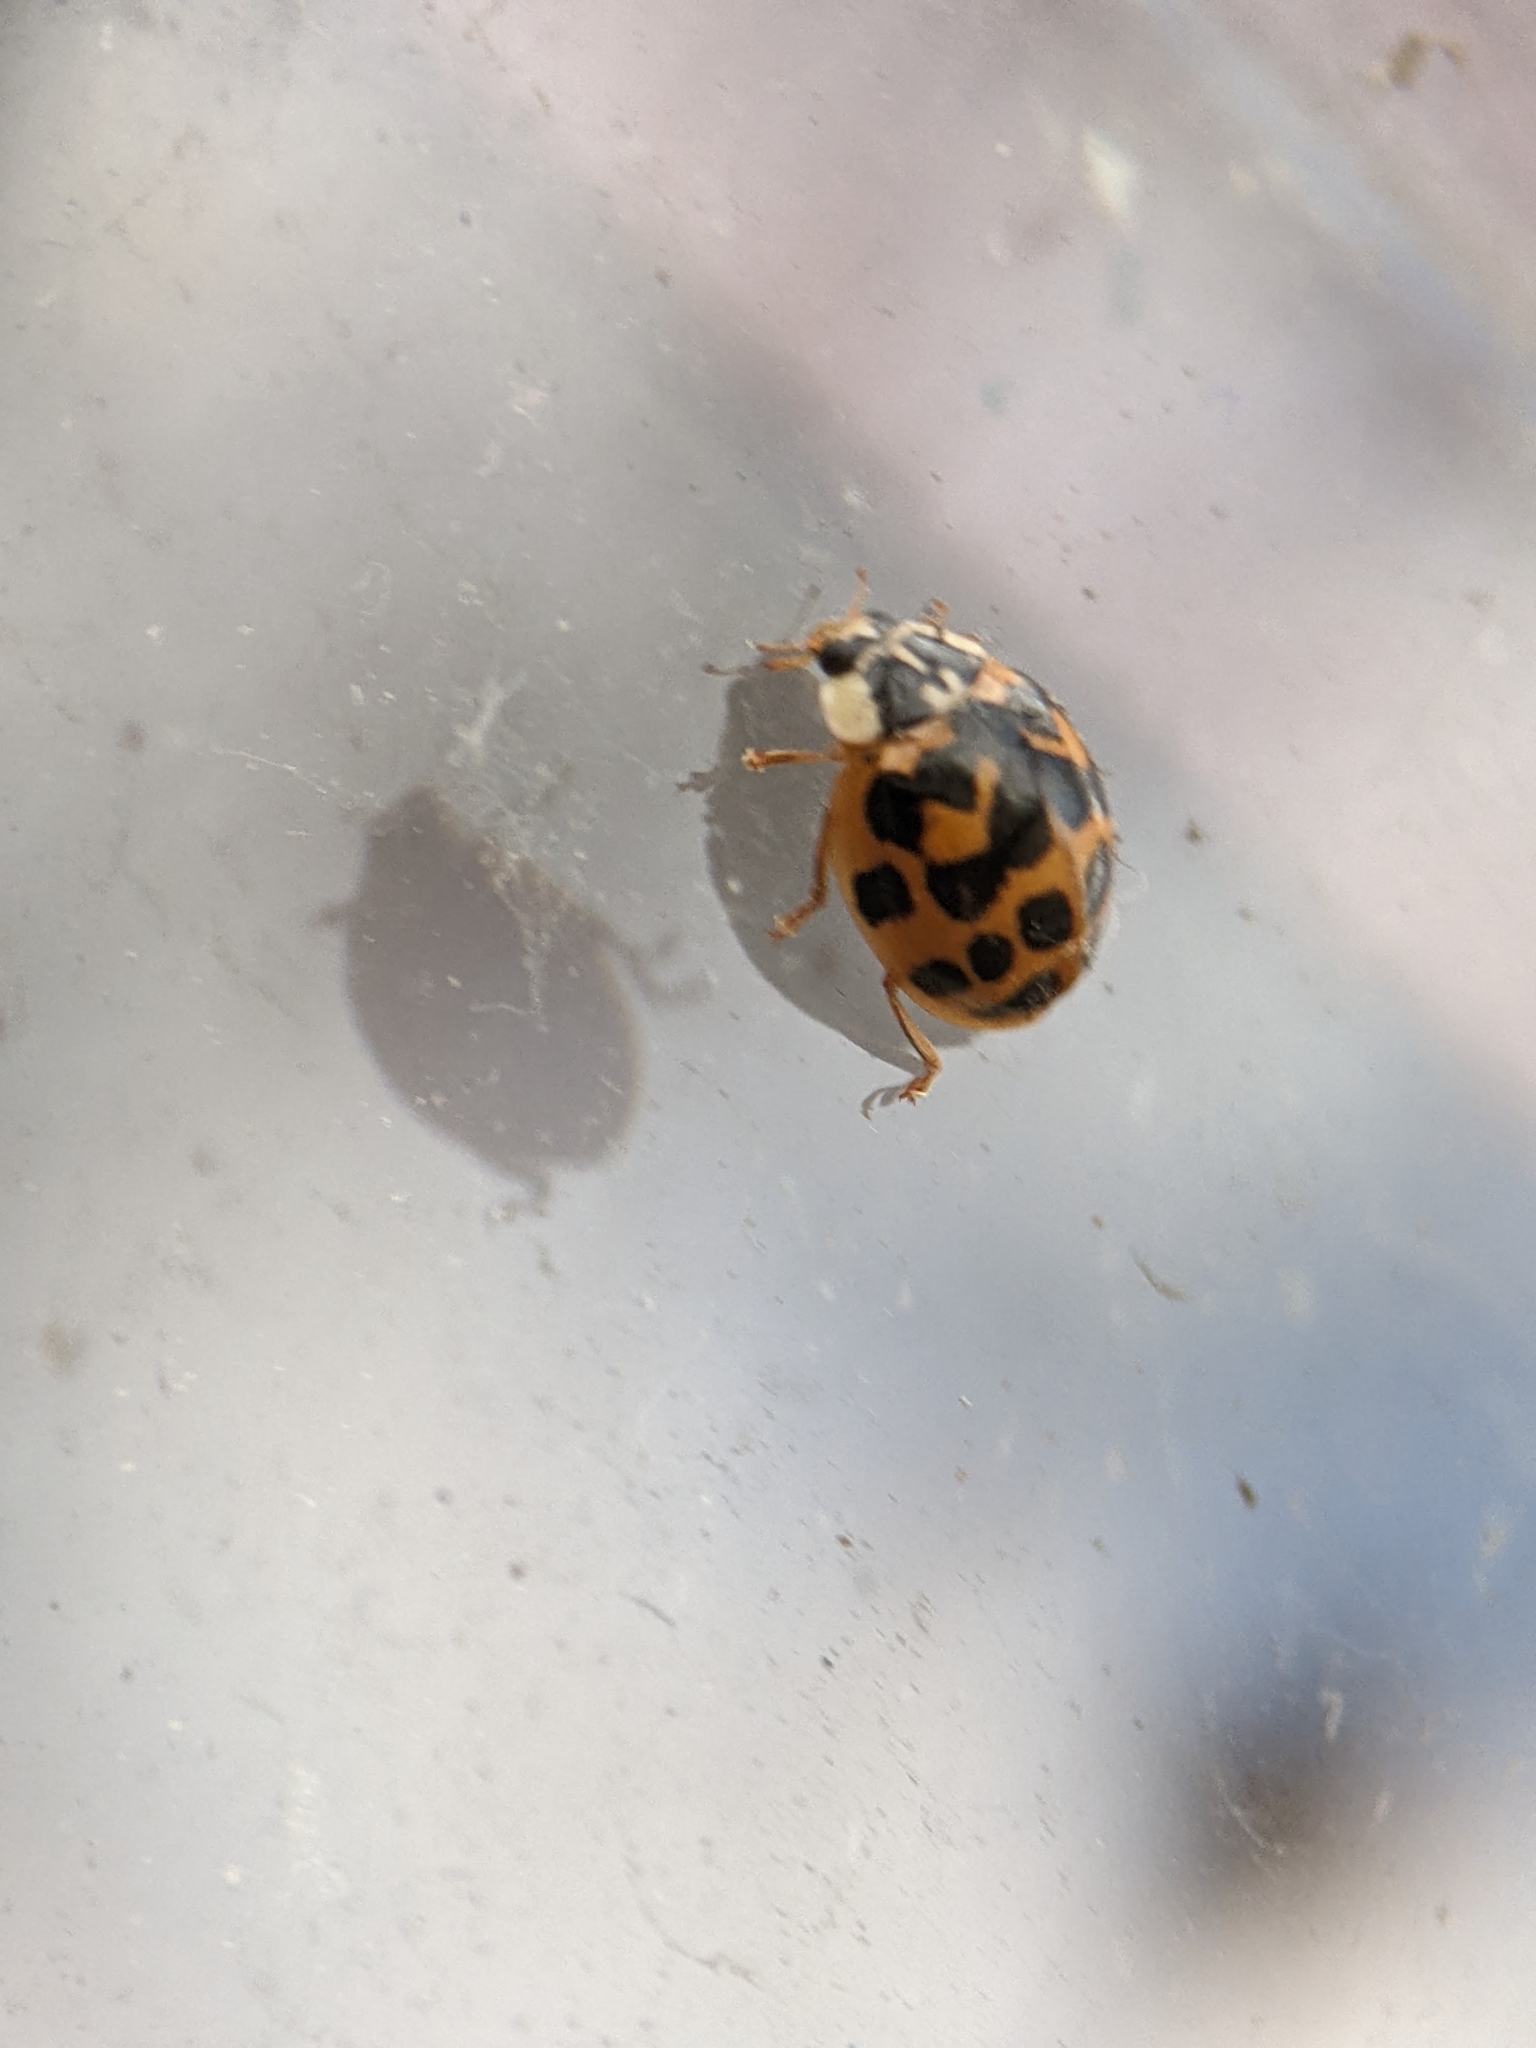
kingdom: Animalia
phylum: Arthropoda
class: Insecta
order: Coleoptera
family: Coccinellidae
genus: Harmonia
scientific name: Harmonia axyridis
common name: Harlequin ladybird
